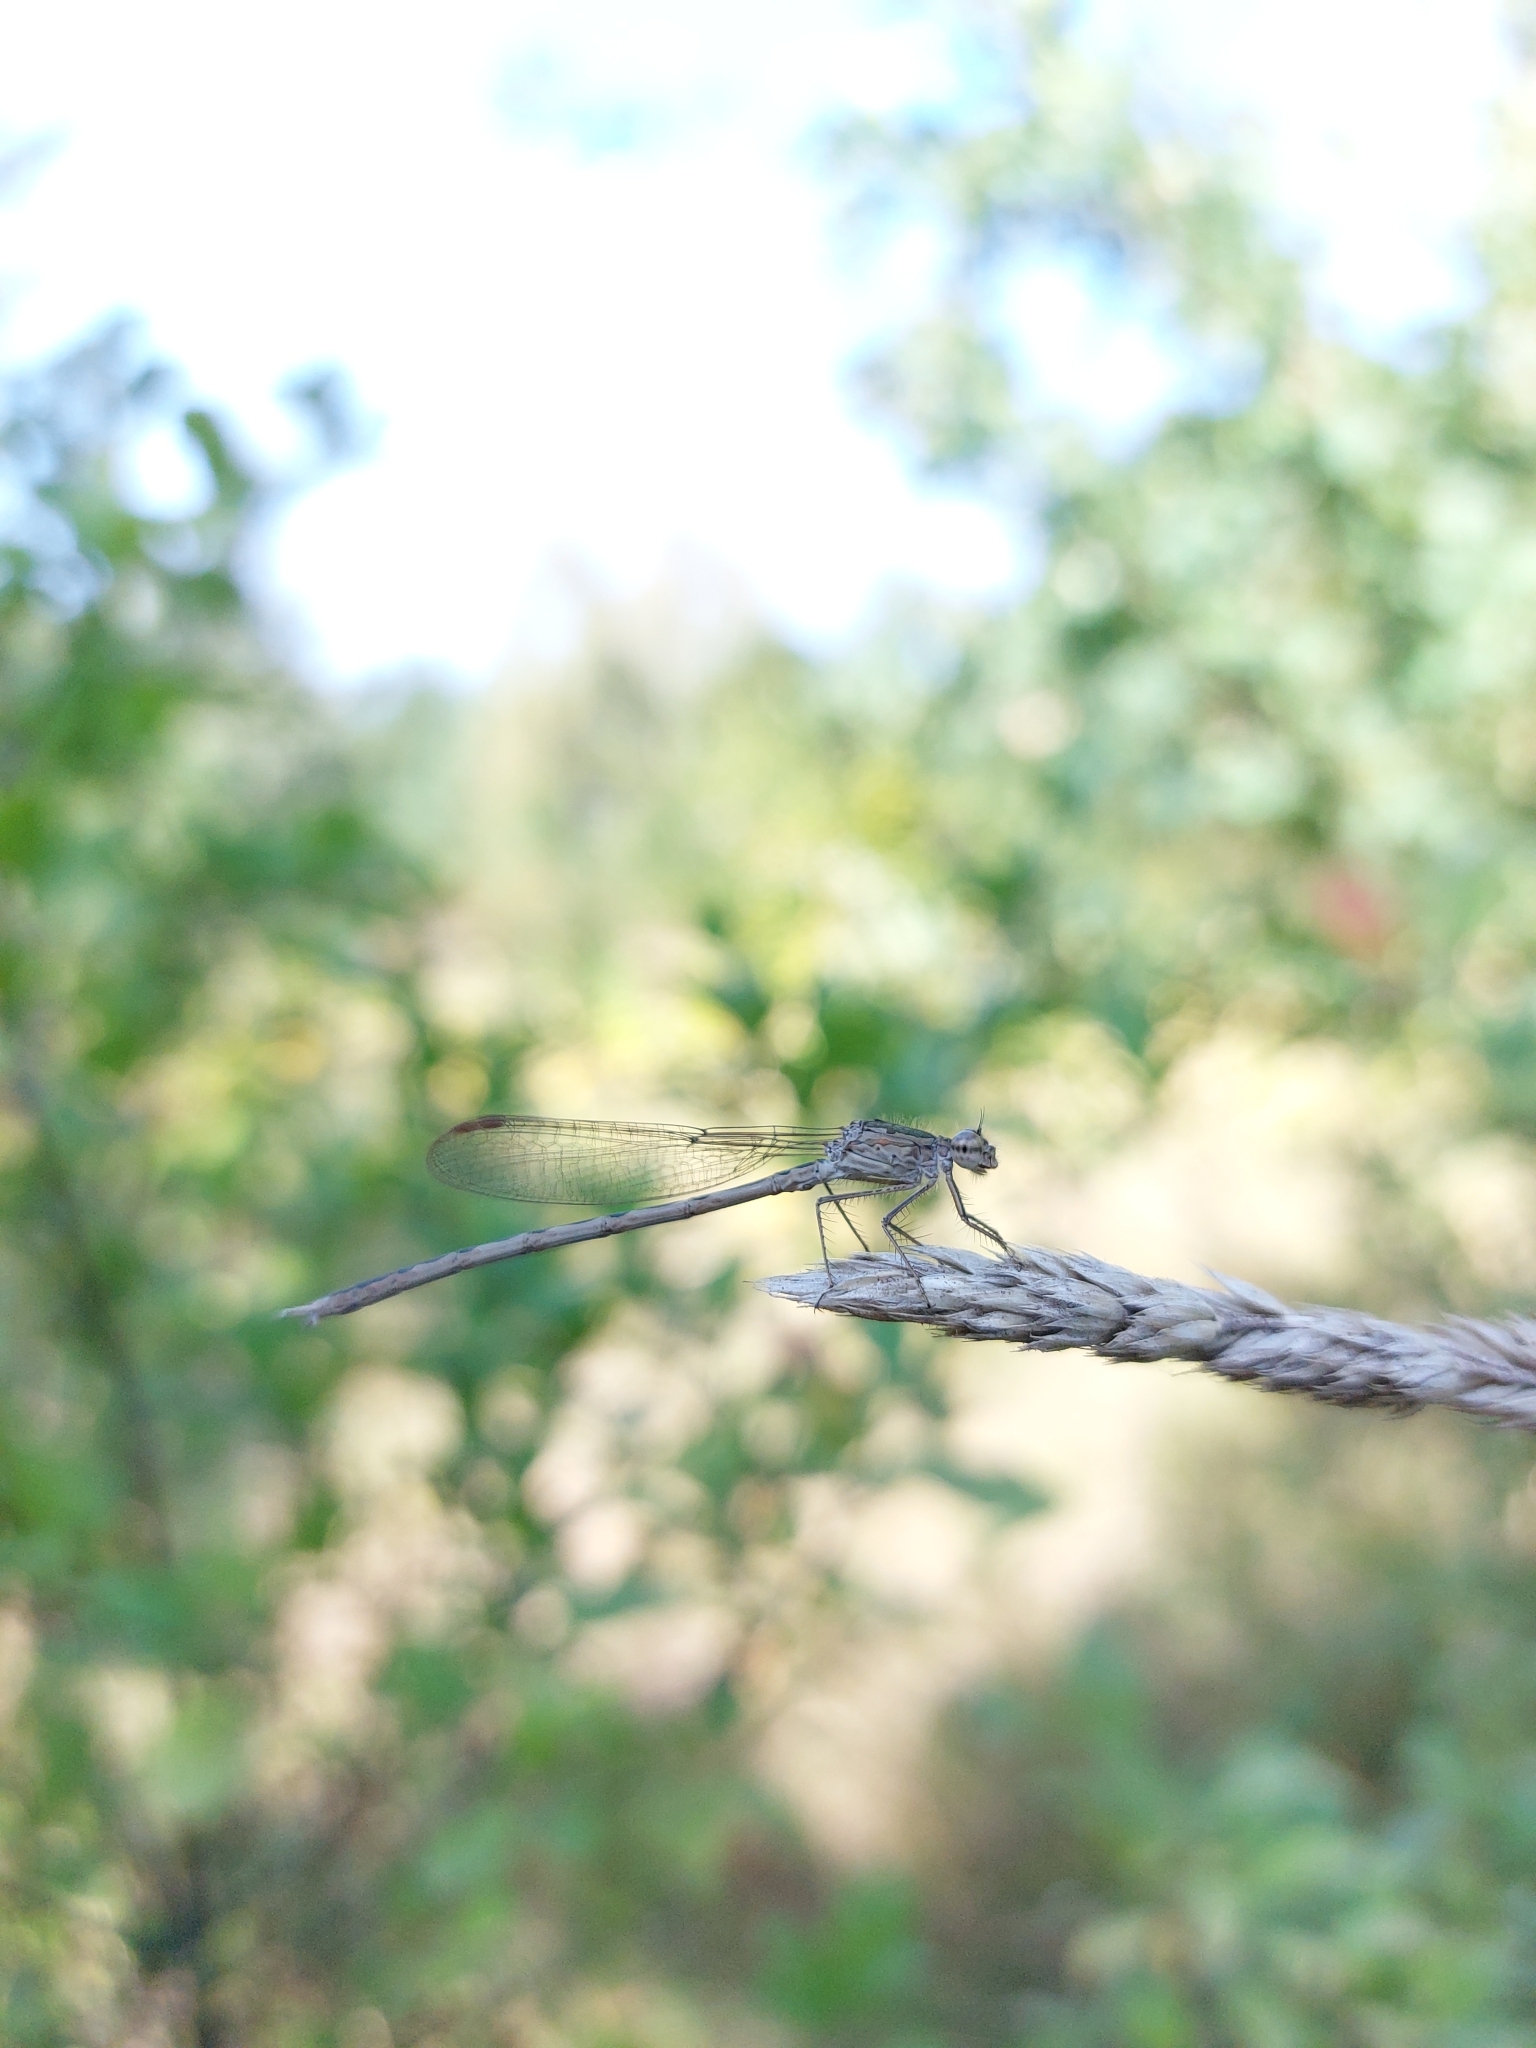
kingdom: Animalia
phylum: Arthropoda
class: Insecta
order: Odonata
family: Lestidae
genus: Sympecma
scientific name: Sympecma paedisca
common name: Siberian winter damsel
